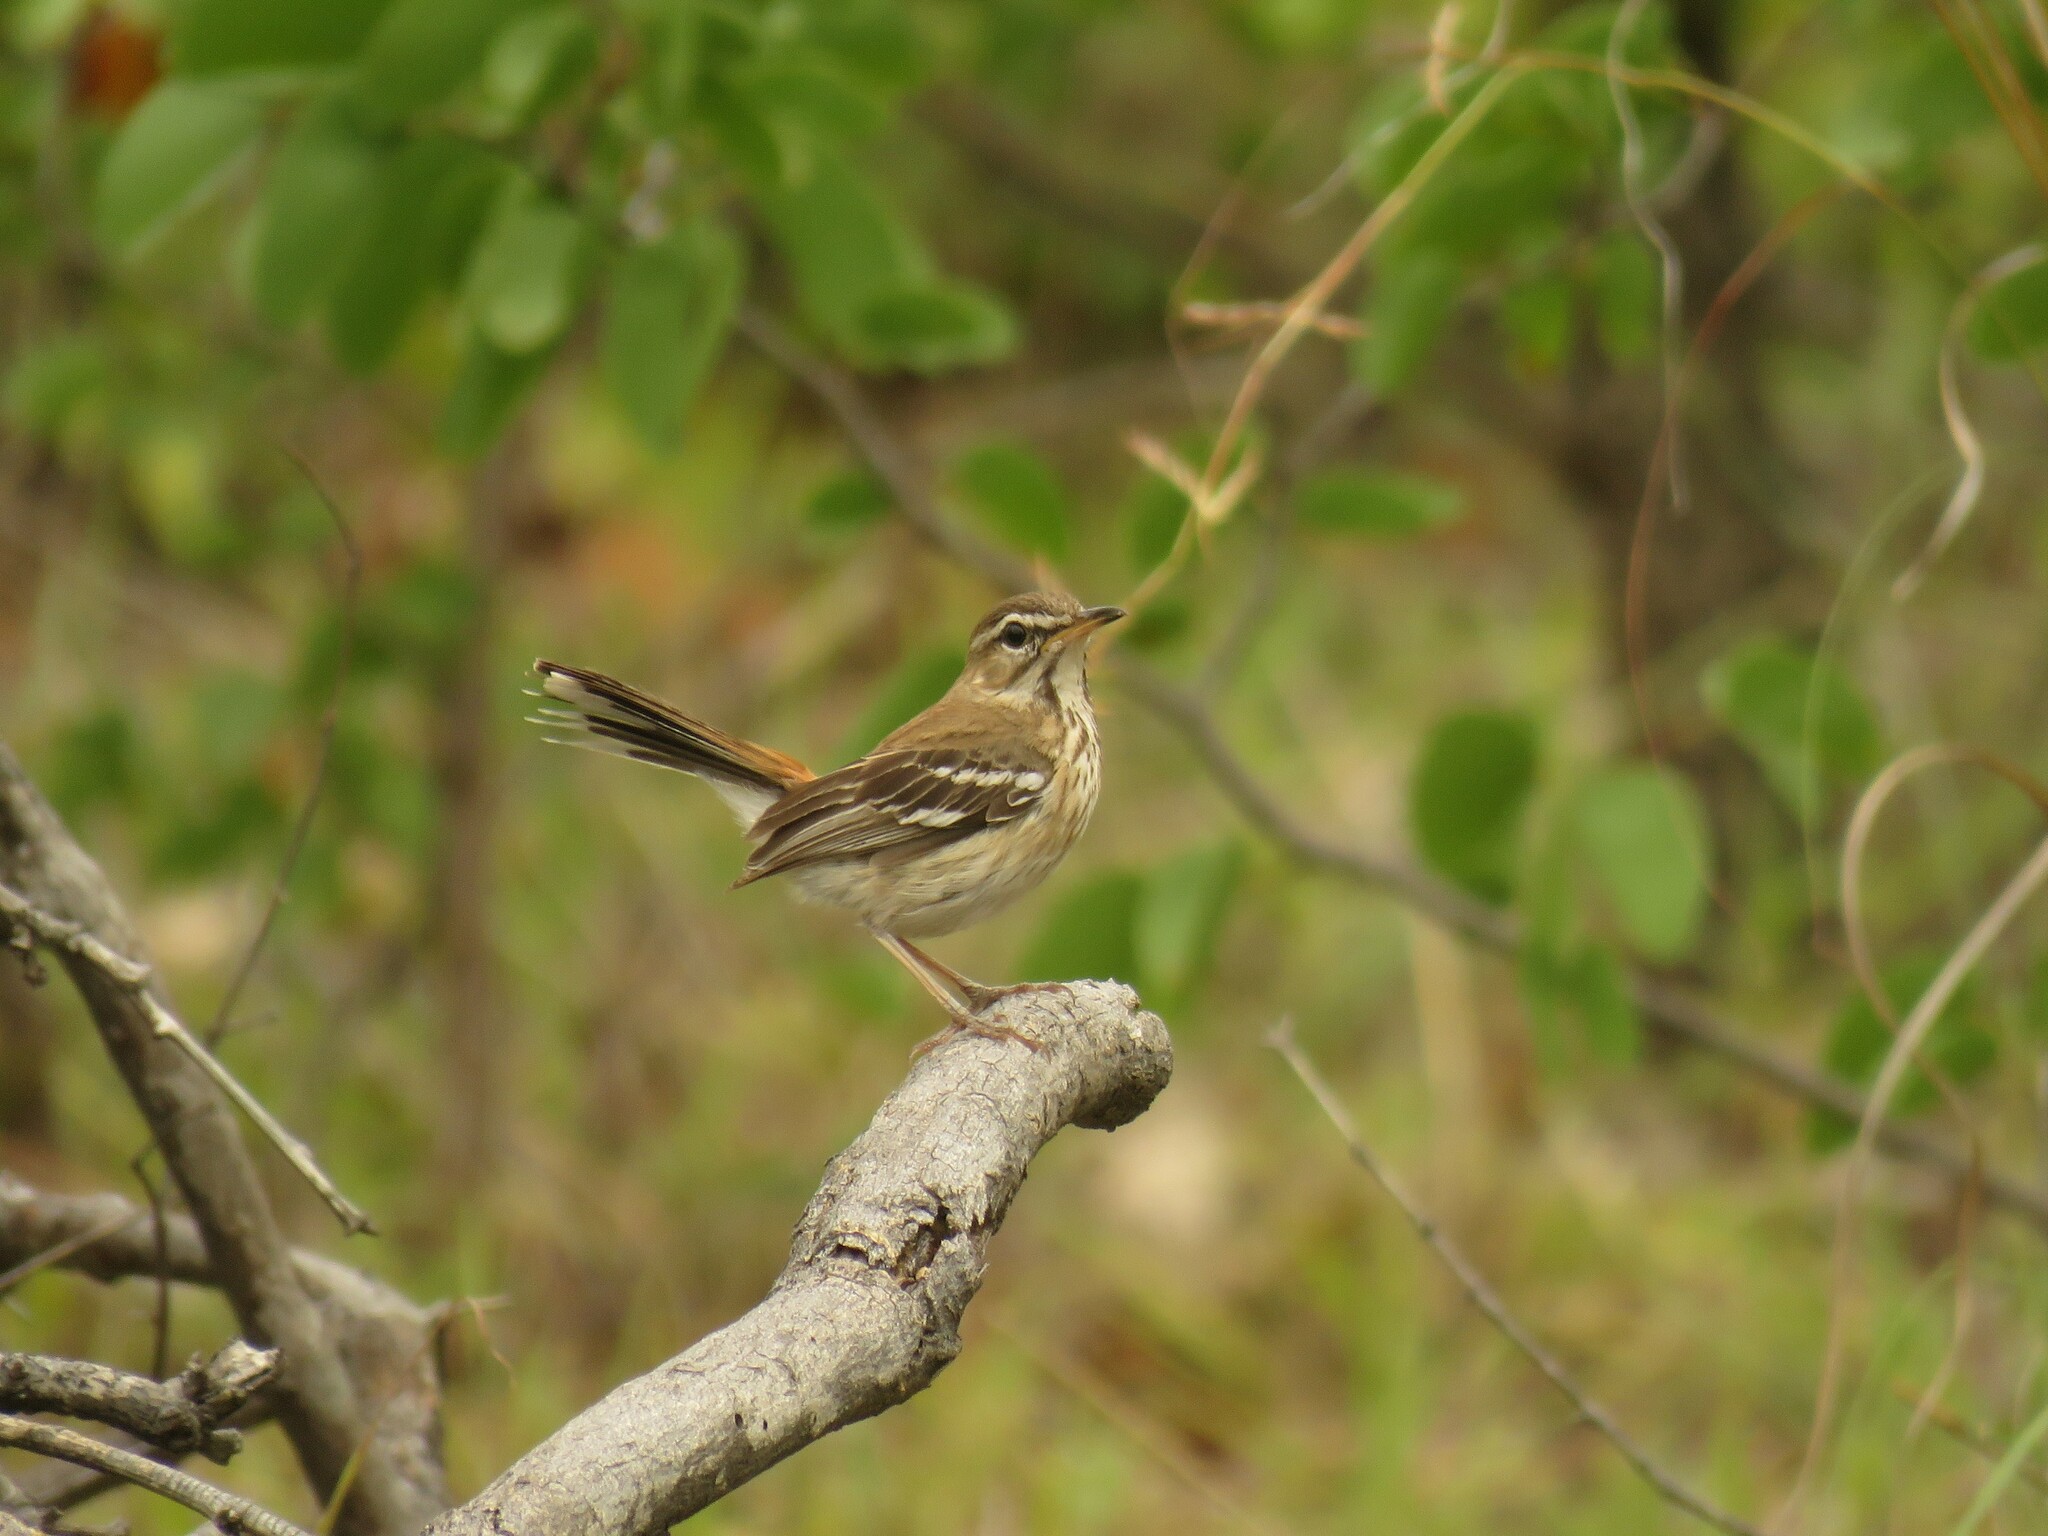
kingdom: Animalia
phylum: Chordata
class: Aves
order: Passeriformes
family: Muscicapidae
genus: Erythropygia
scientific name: Erythropygia leucophrys
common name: White-browed scrub robin
